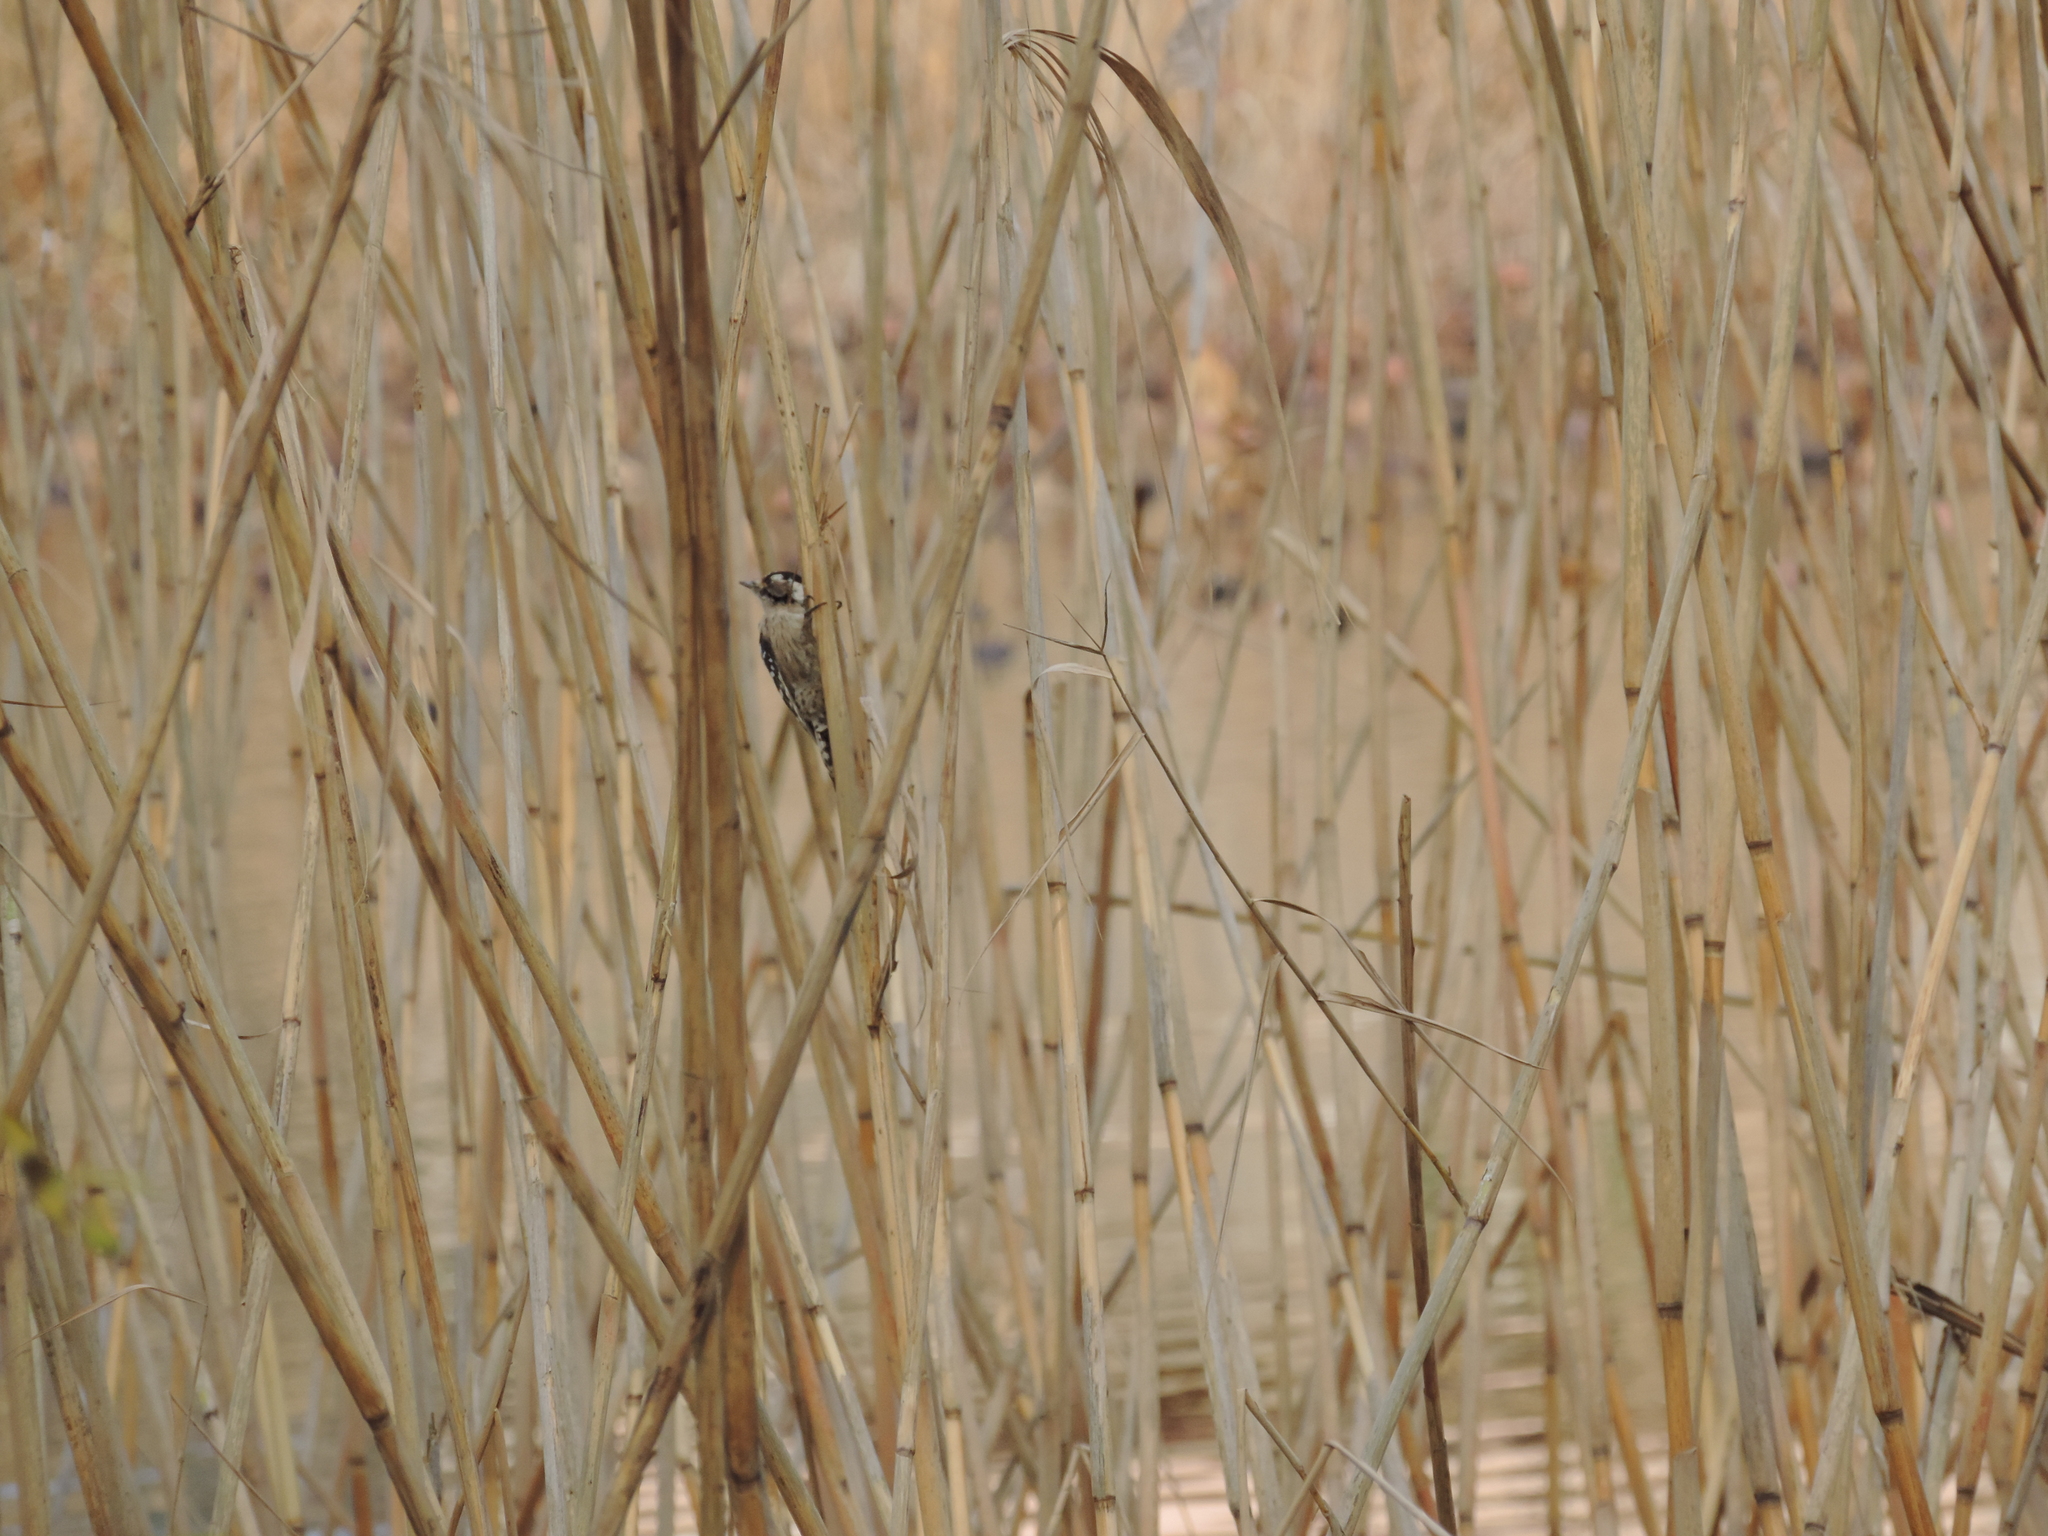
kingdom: Animalia
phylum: Chordata
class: Aves
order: Piciformes
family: Picidae
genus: Dryobates
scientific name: Dryobates minor
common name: Lesser spotted woodpecker
